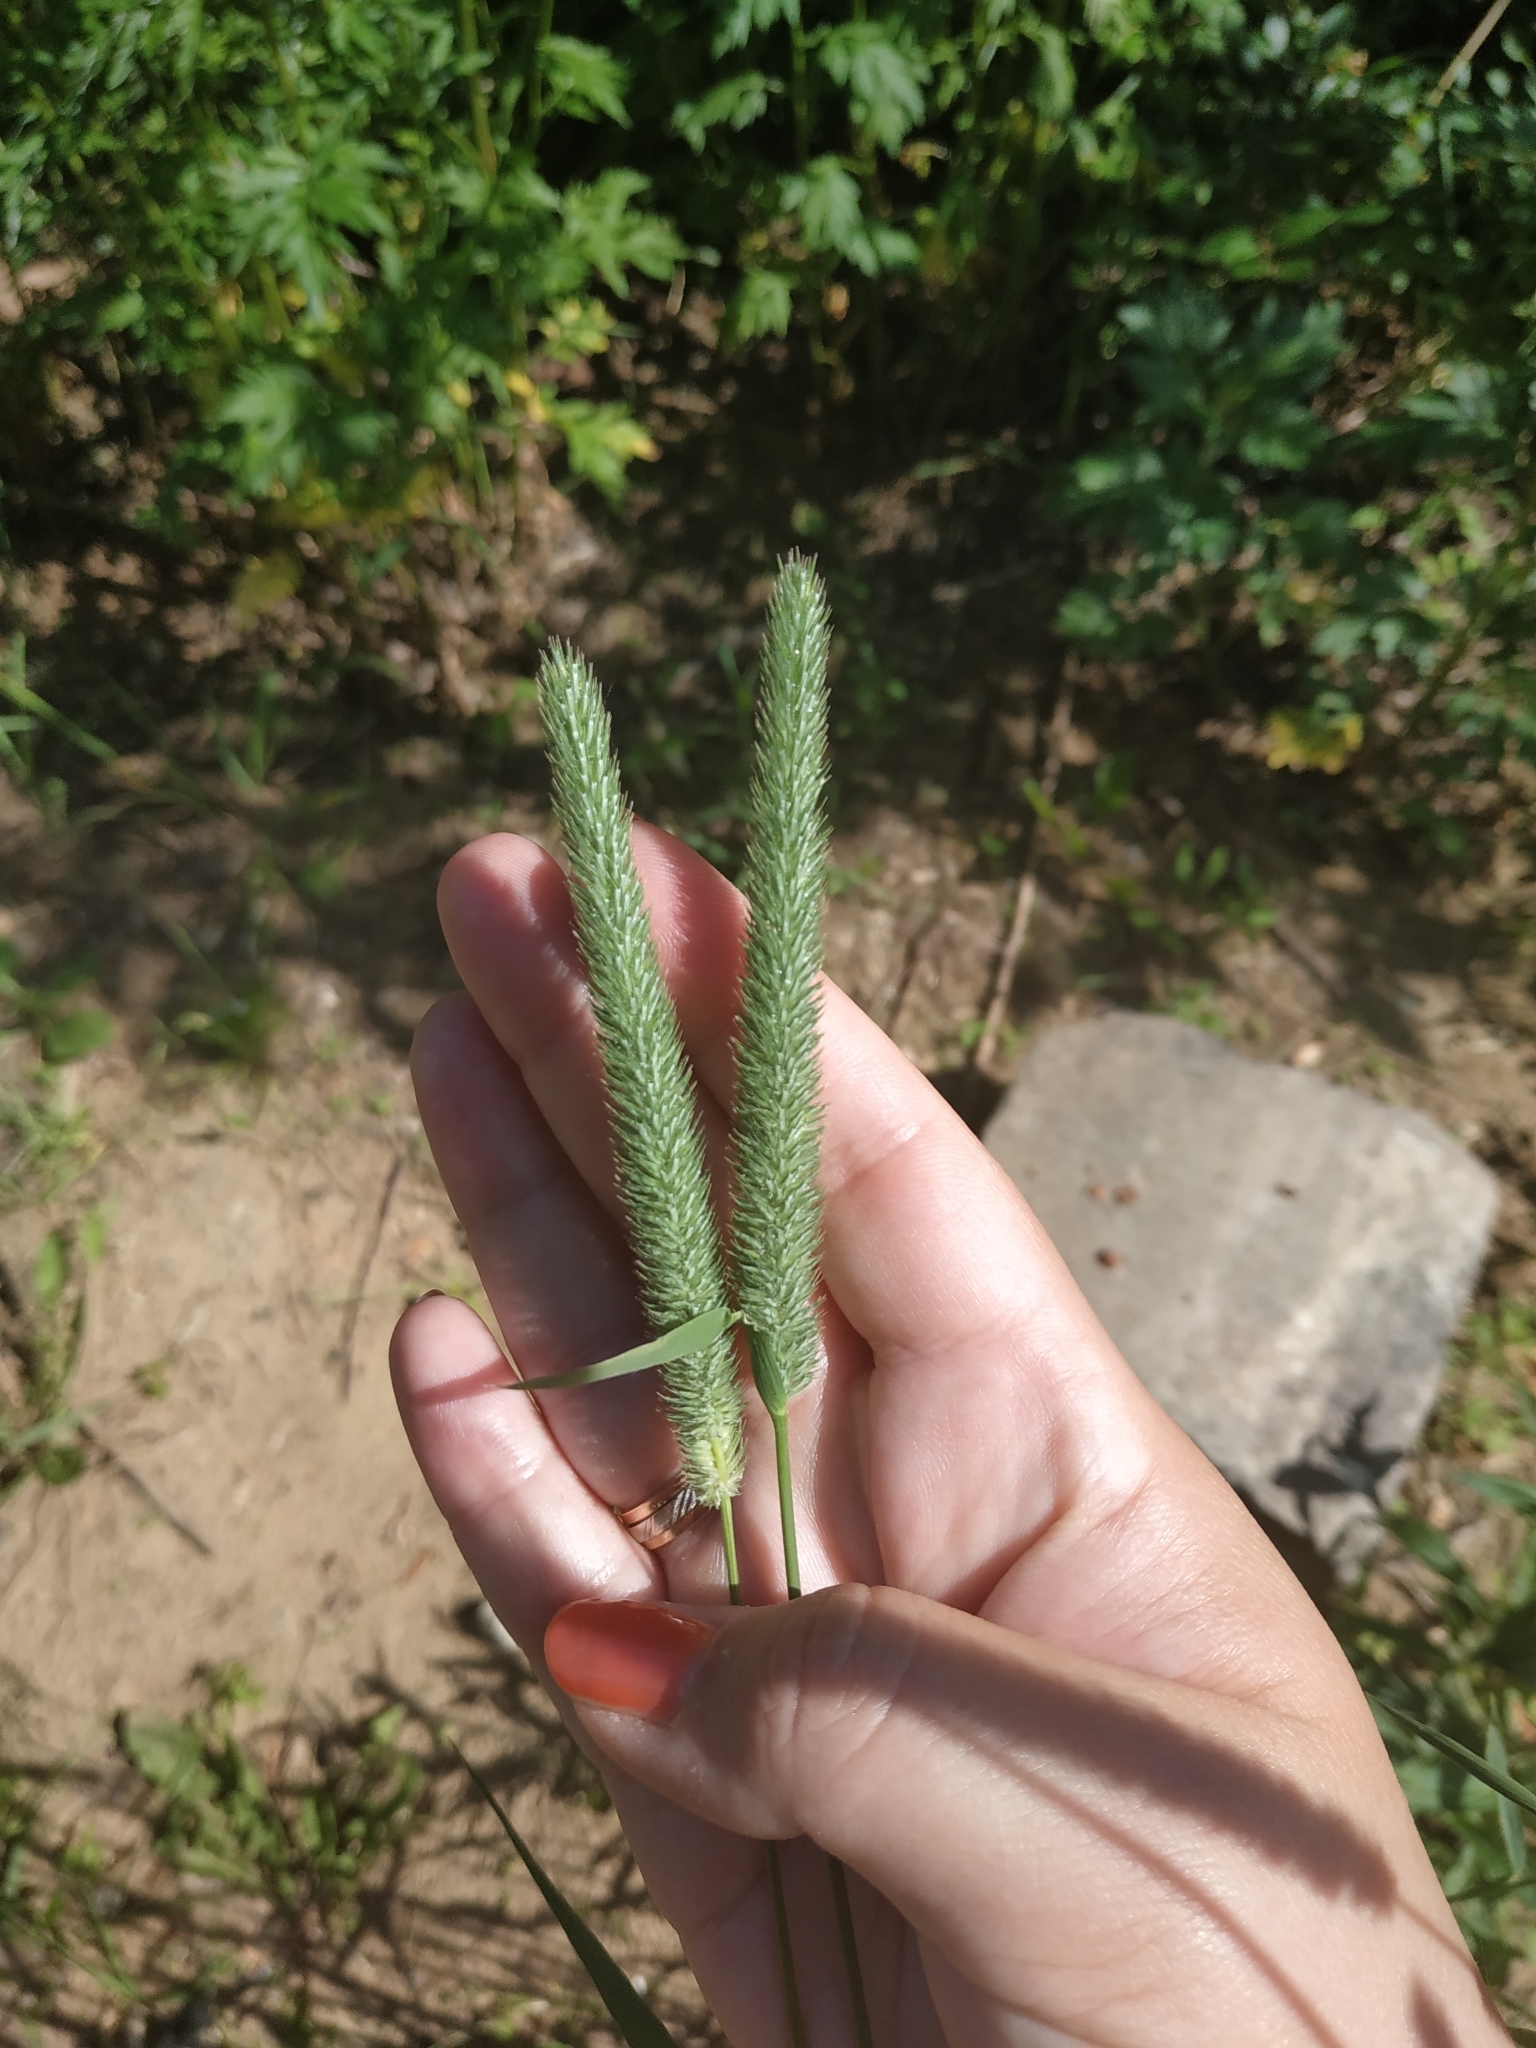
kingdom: Plantae
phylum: Tracheophyta
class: Liliopsida
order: Poales
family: Poaceae
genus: Phleum
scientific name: Phleum pratense
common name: Timothy grass
